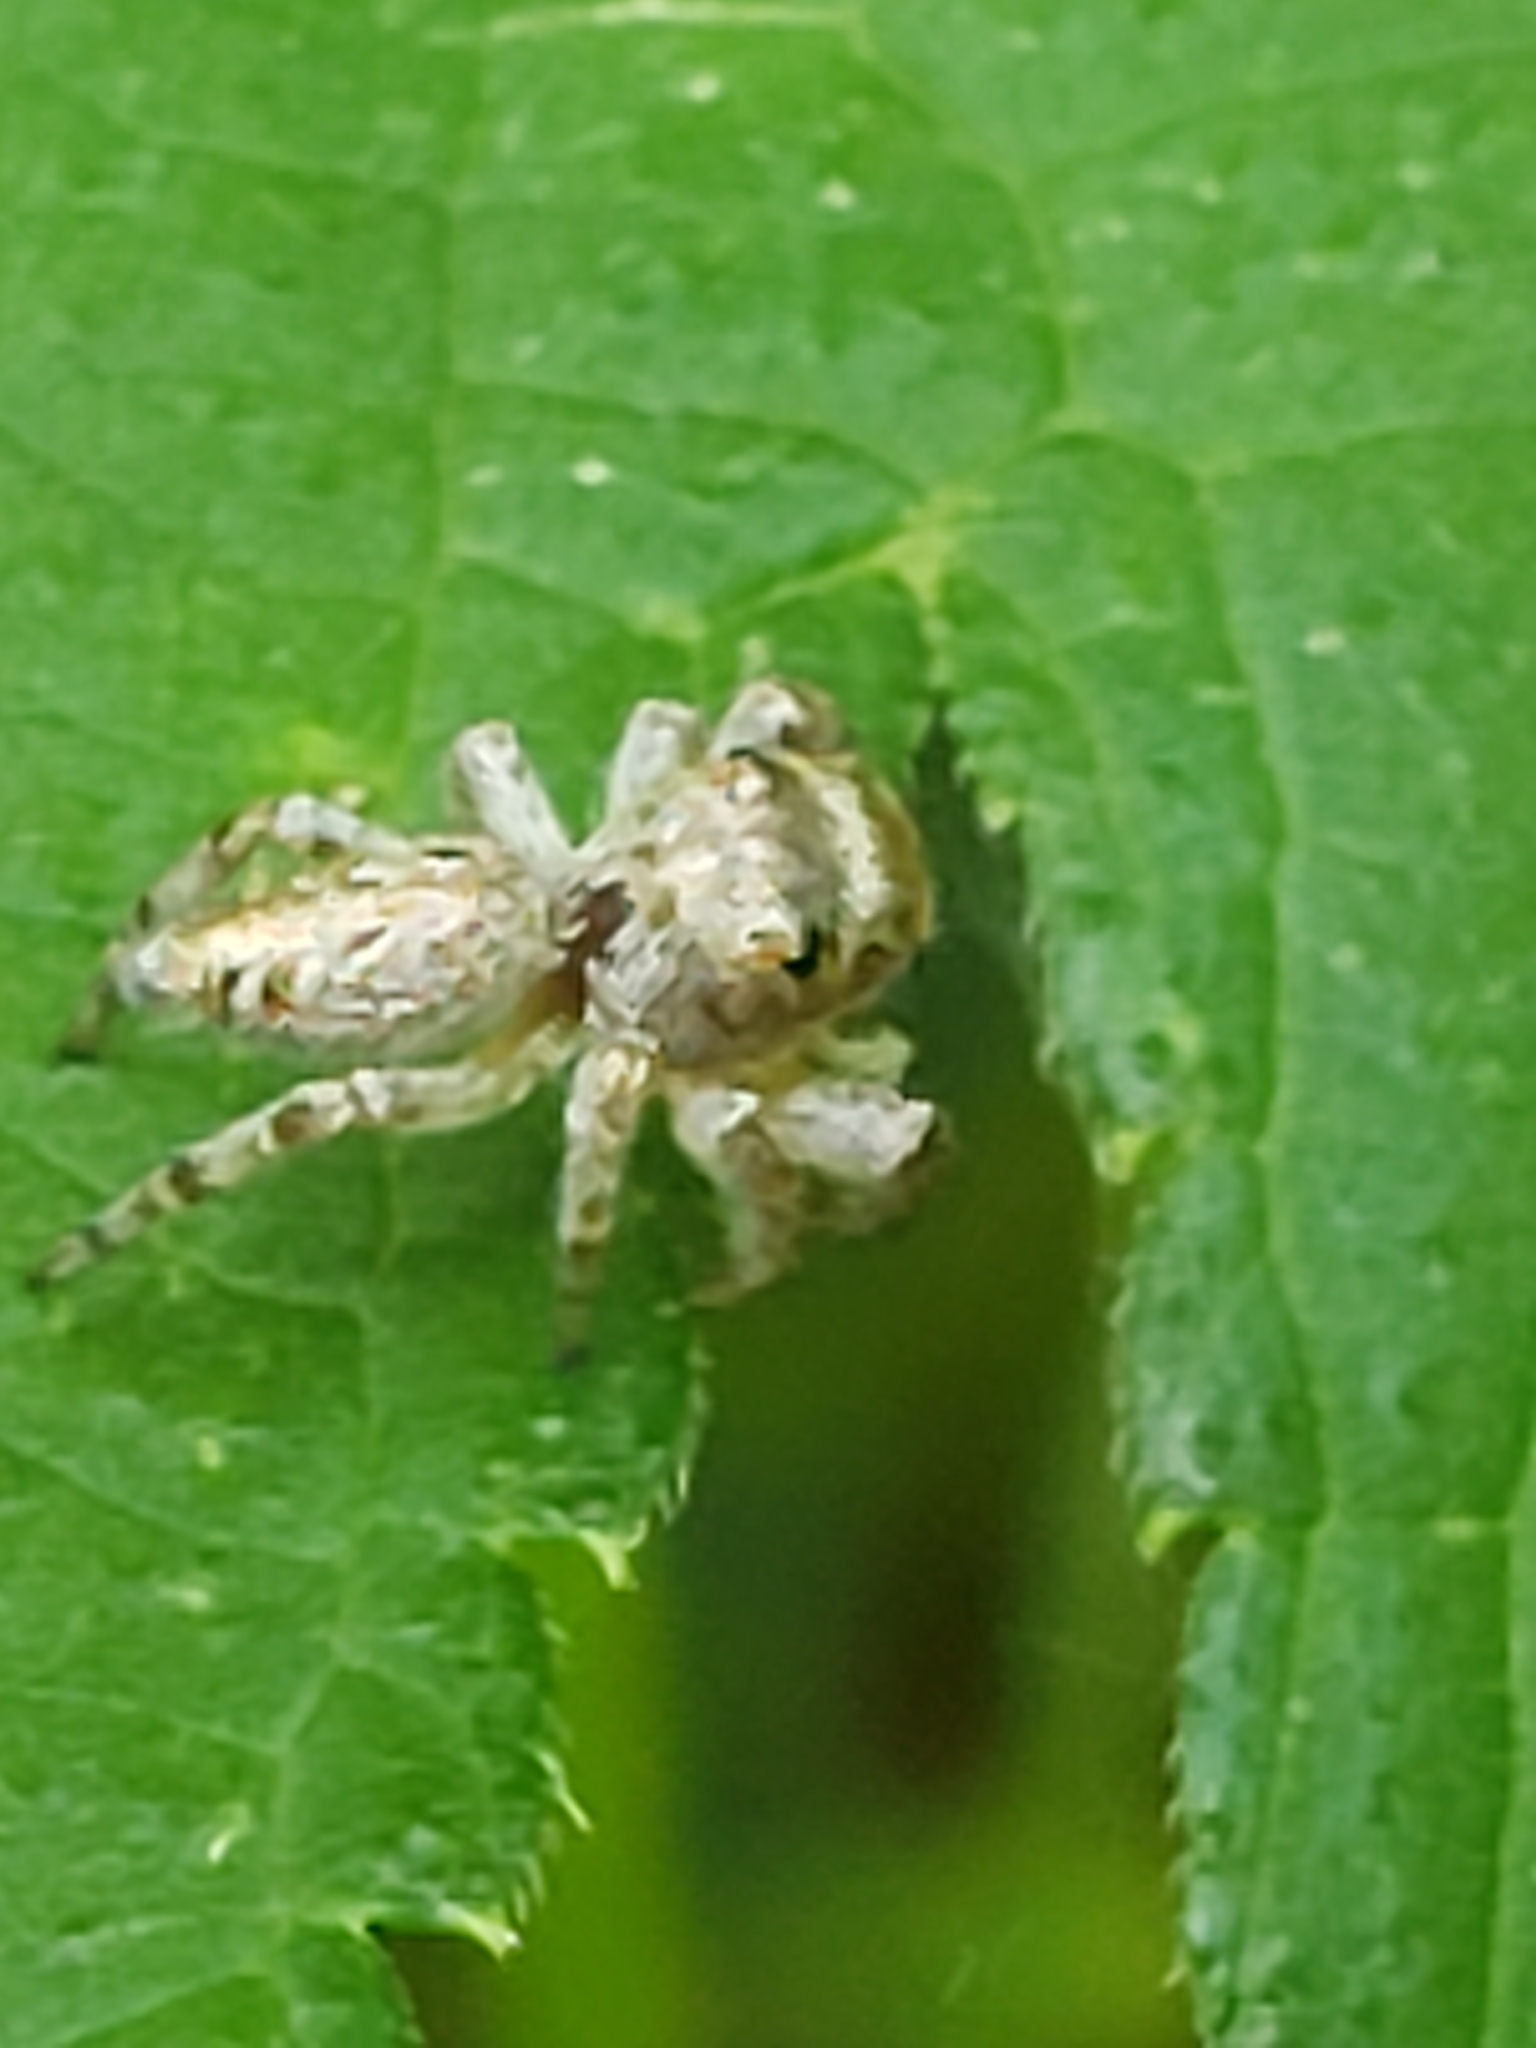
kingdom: Animalia
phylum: Arthropoda
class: Arachnida
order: Araneae
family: Salticidae
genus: Eris
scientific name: Eris militaris
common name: Bronze jumper
